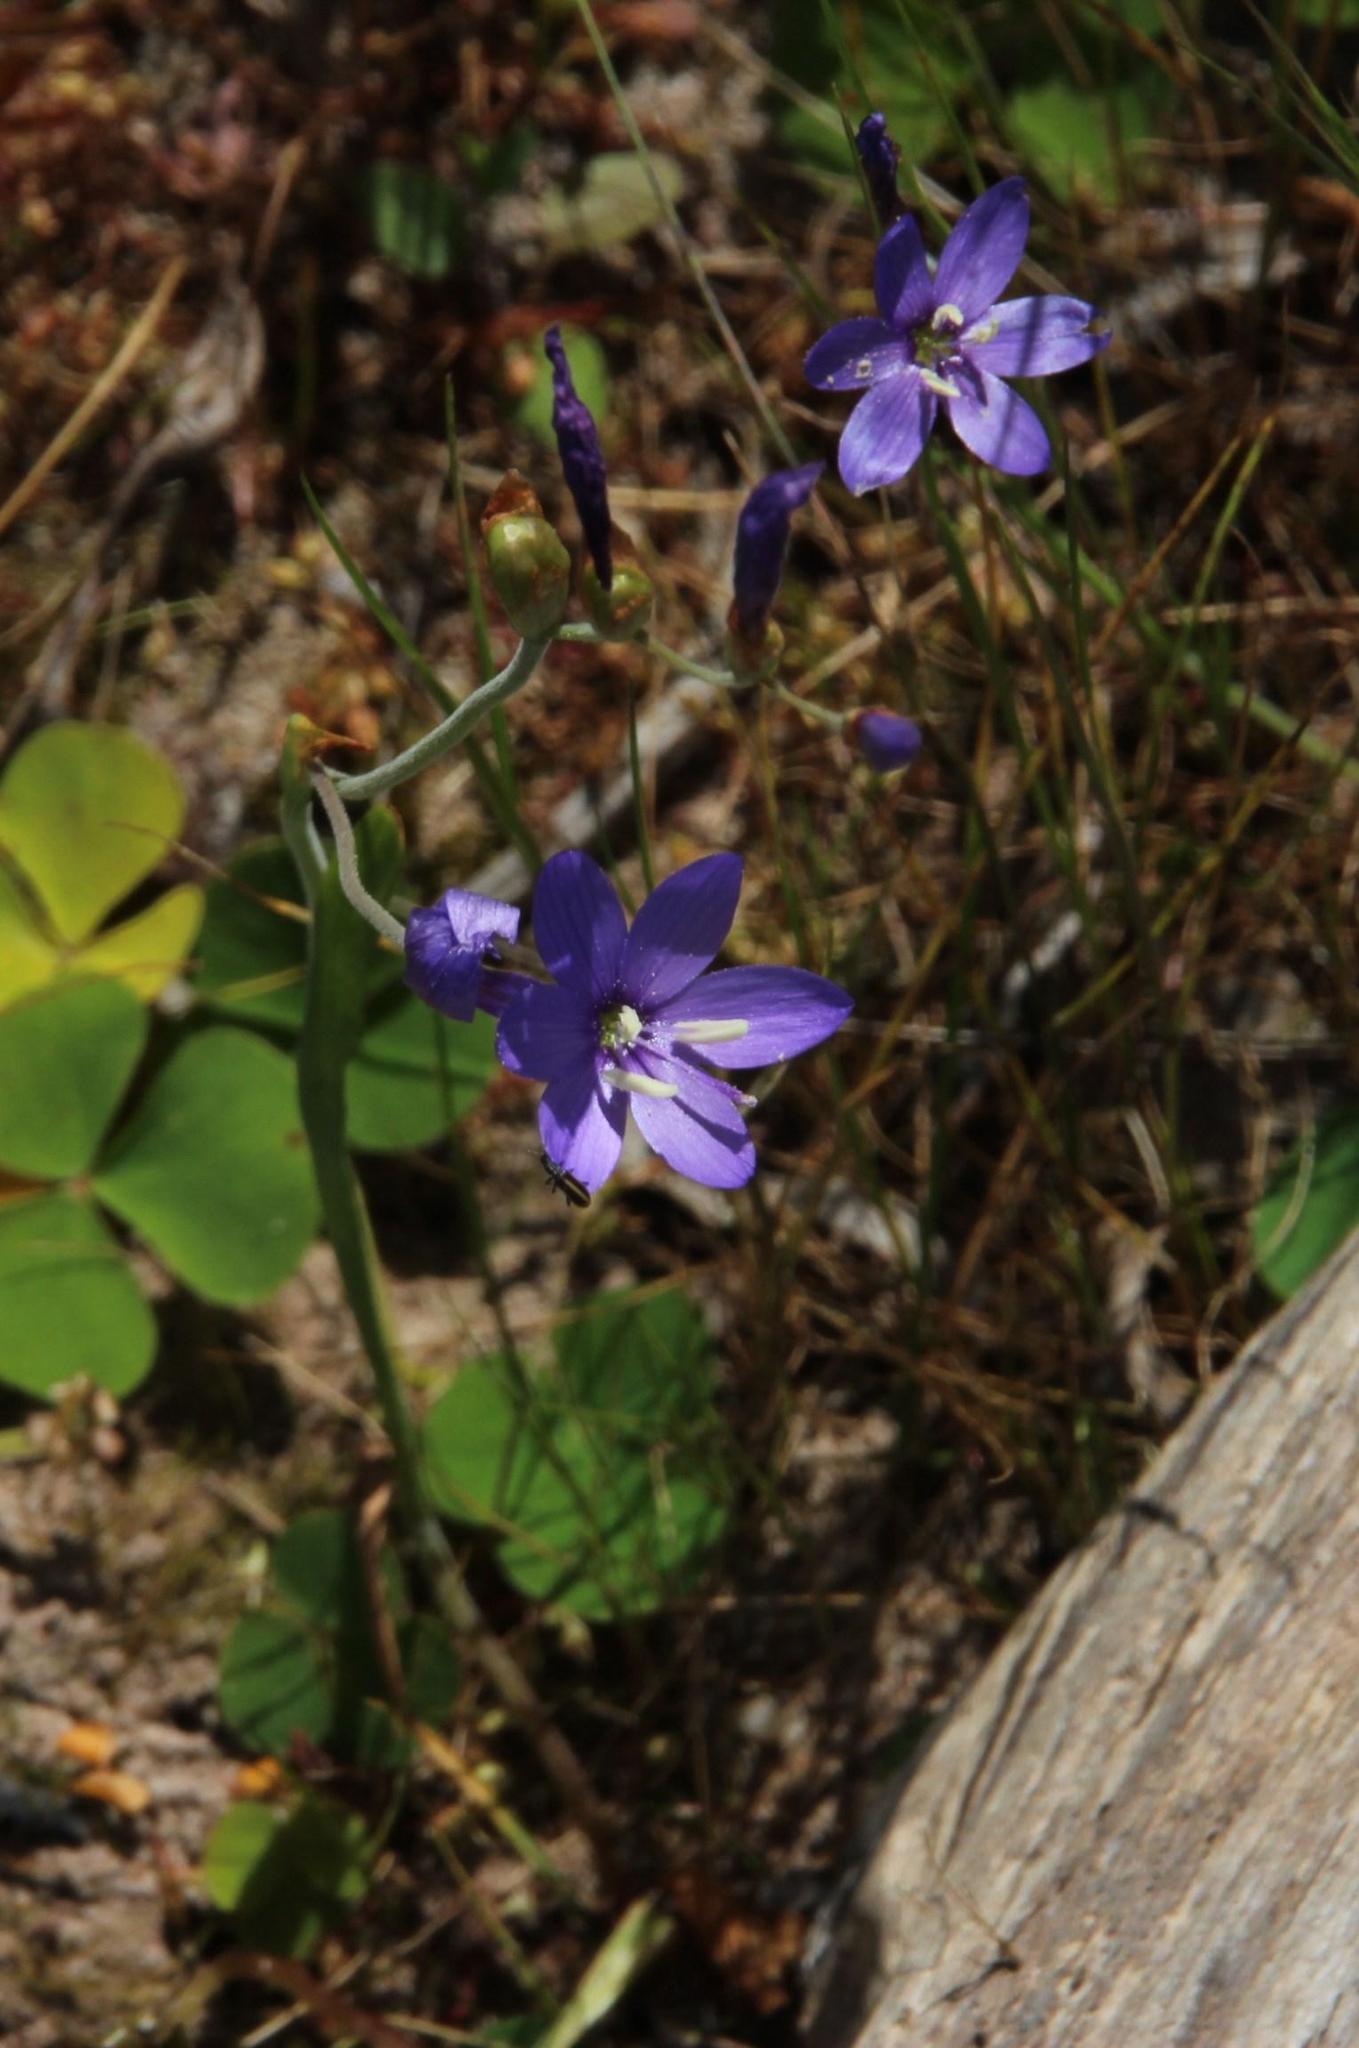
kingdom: Plantae
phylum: Tracheophyta
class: Liliopsida
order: Asparagales
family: Iridaceae
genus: Geissorhiza
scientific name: Geissorhiza aspera
